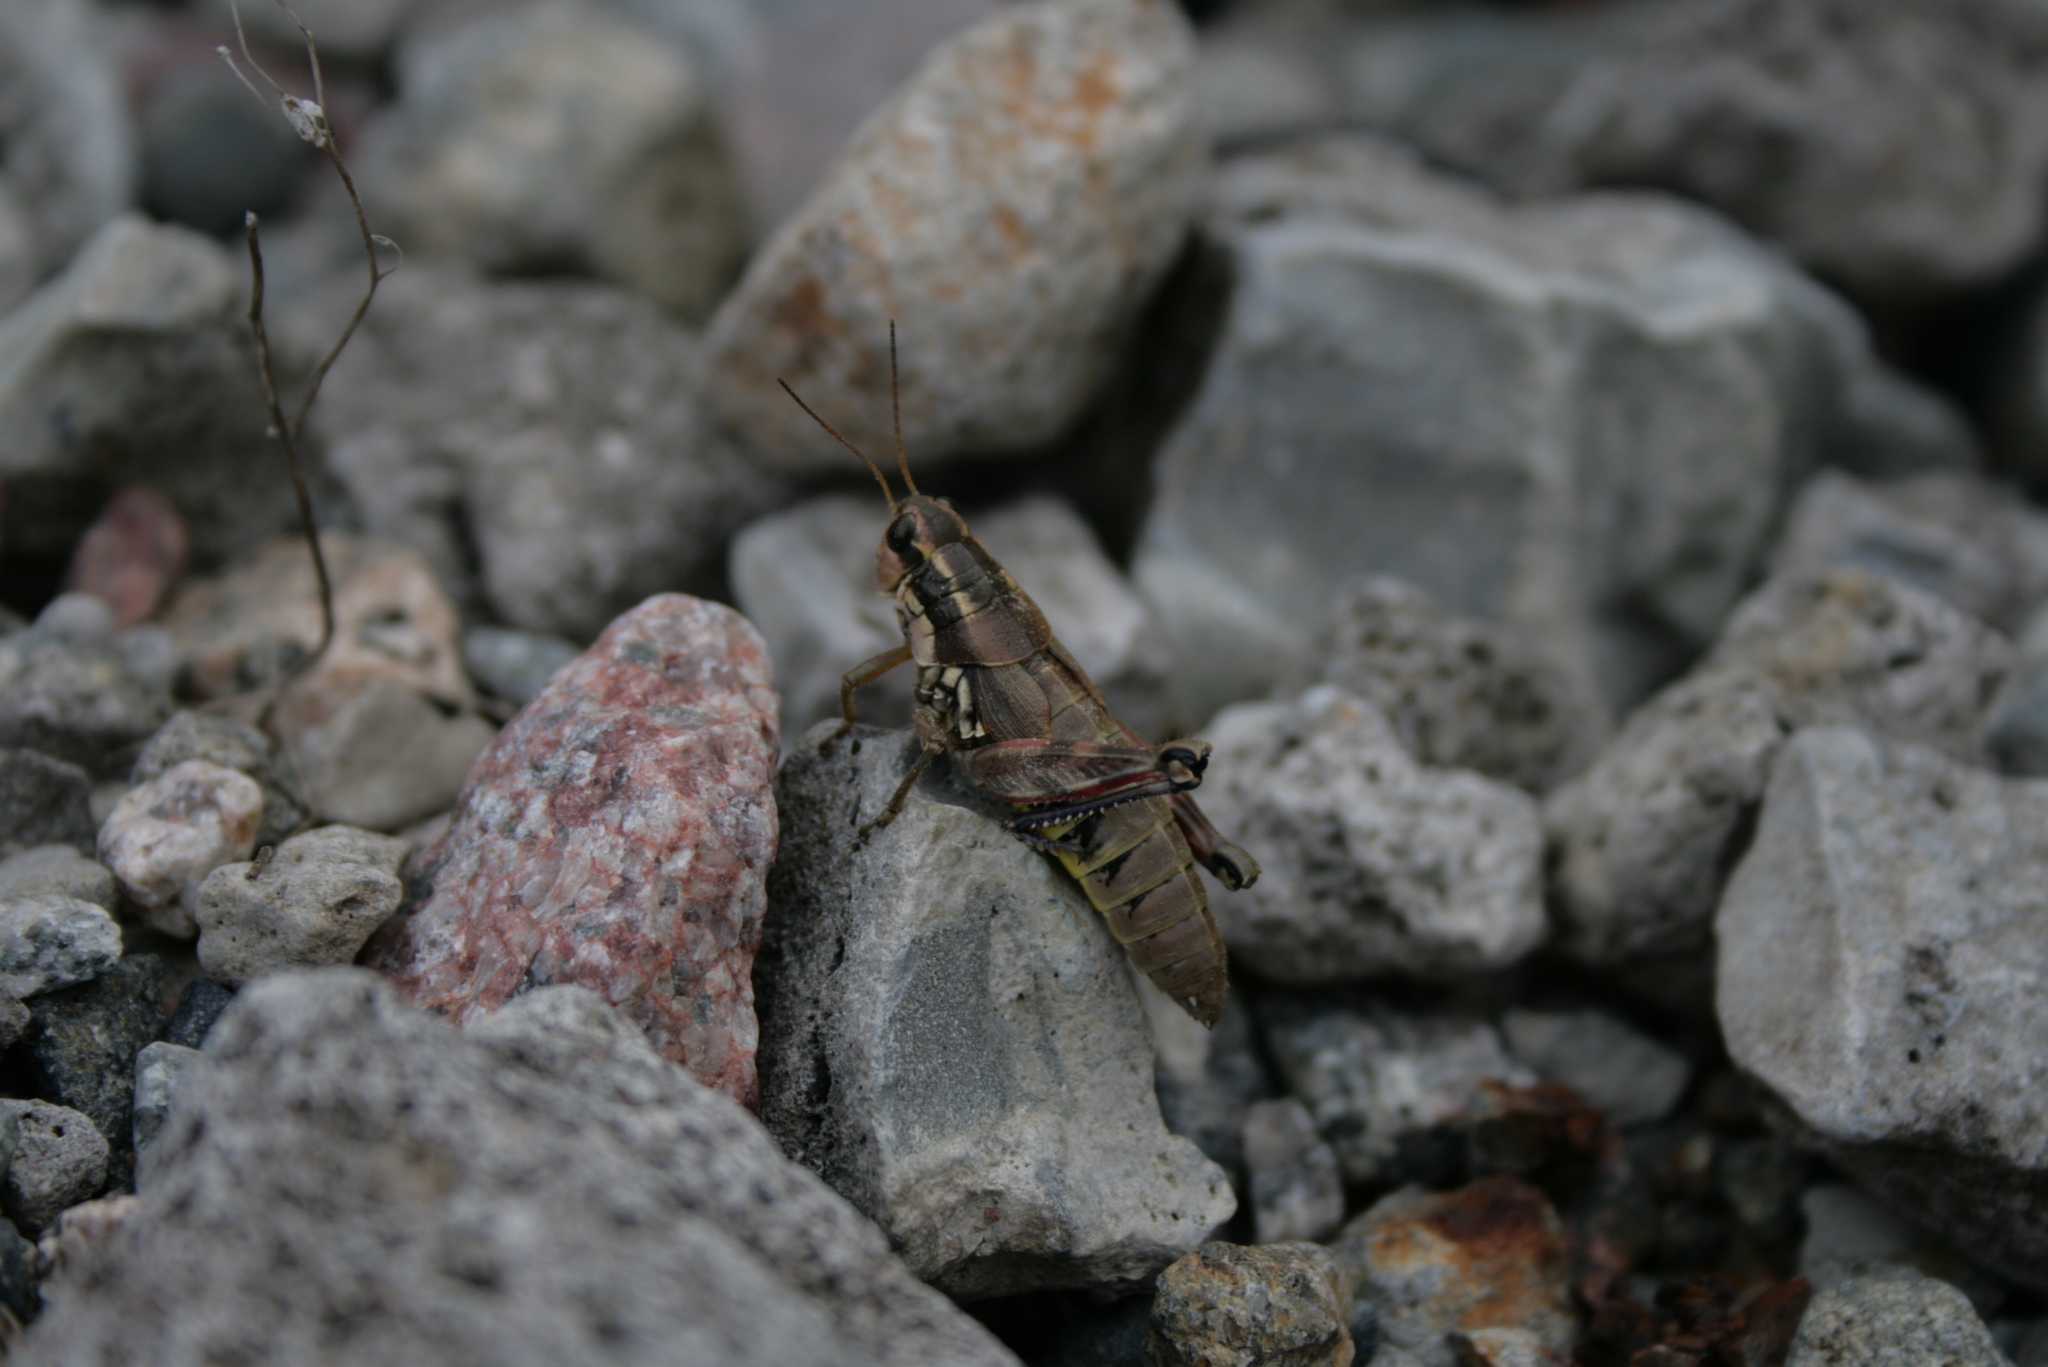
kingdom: Animalia
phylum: Arthropoda
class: Insecta
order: Orthoptera
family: Acrididae
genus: Podisma
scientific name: Podisma pedestris
